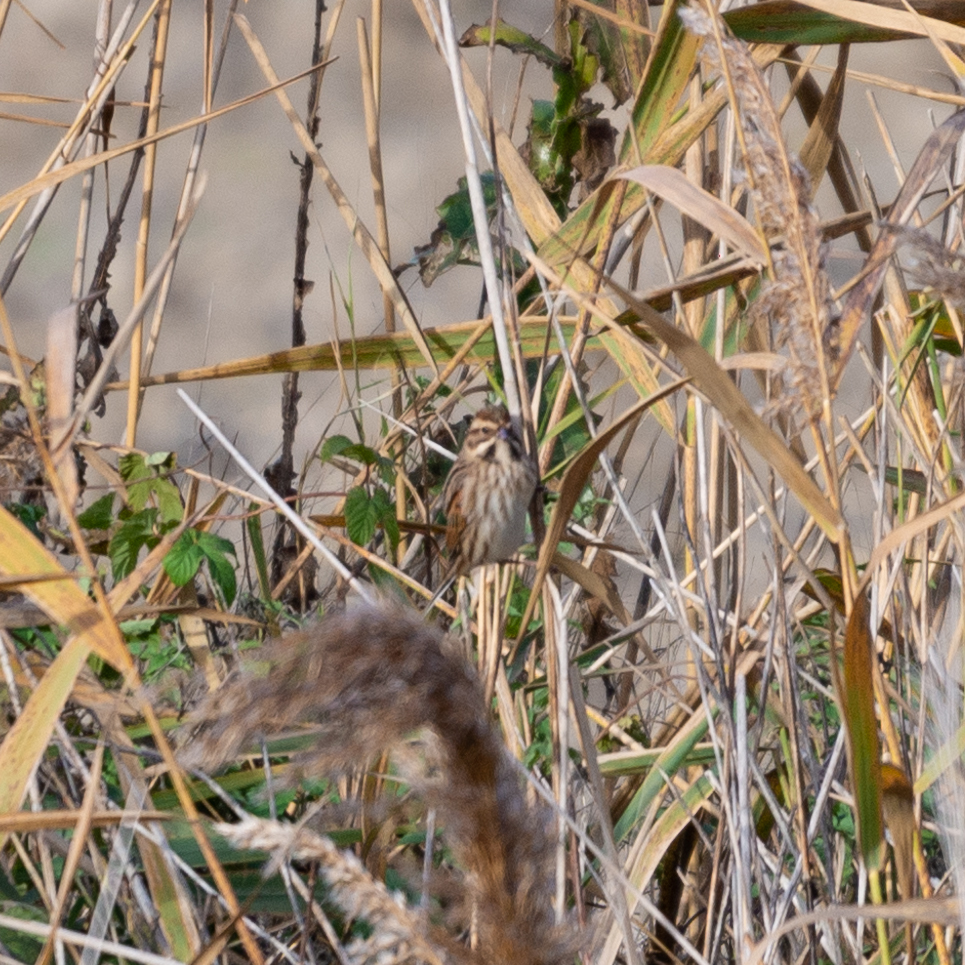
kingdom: Animalia
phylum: Chordata
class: Aves
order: Passeriformes
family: Emberizidae
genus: Emberiza
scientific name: Emberiza schoeniclus
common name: Reed bunting
